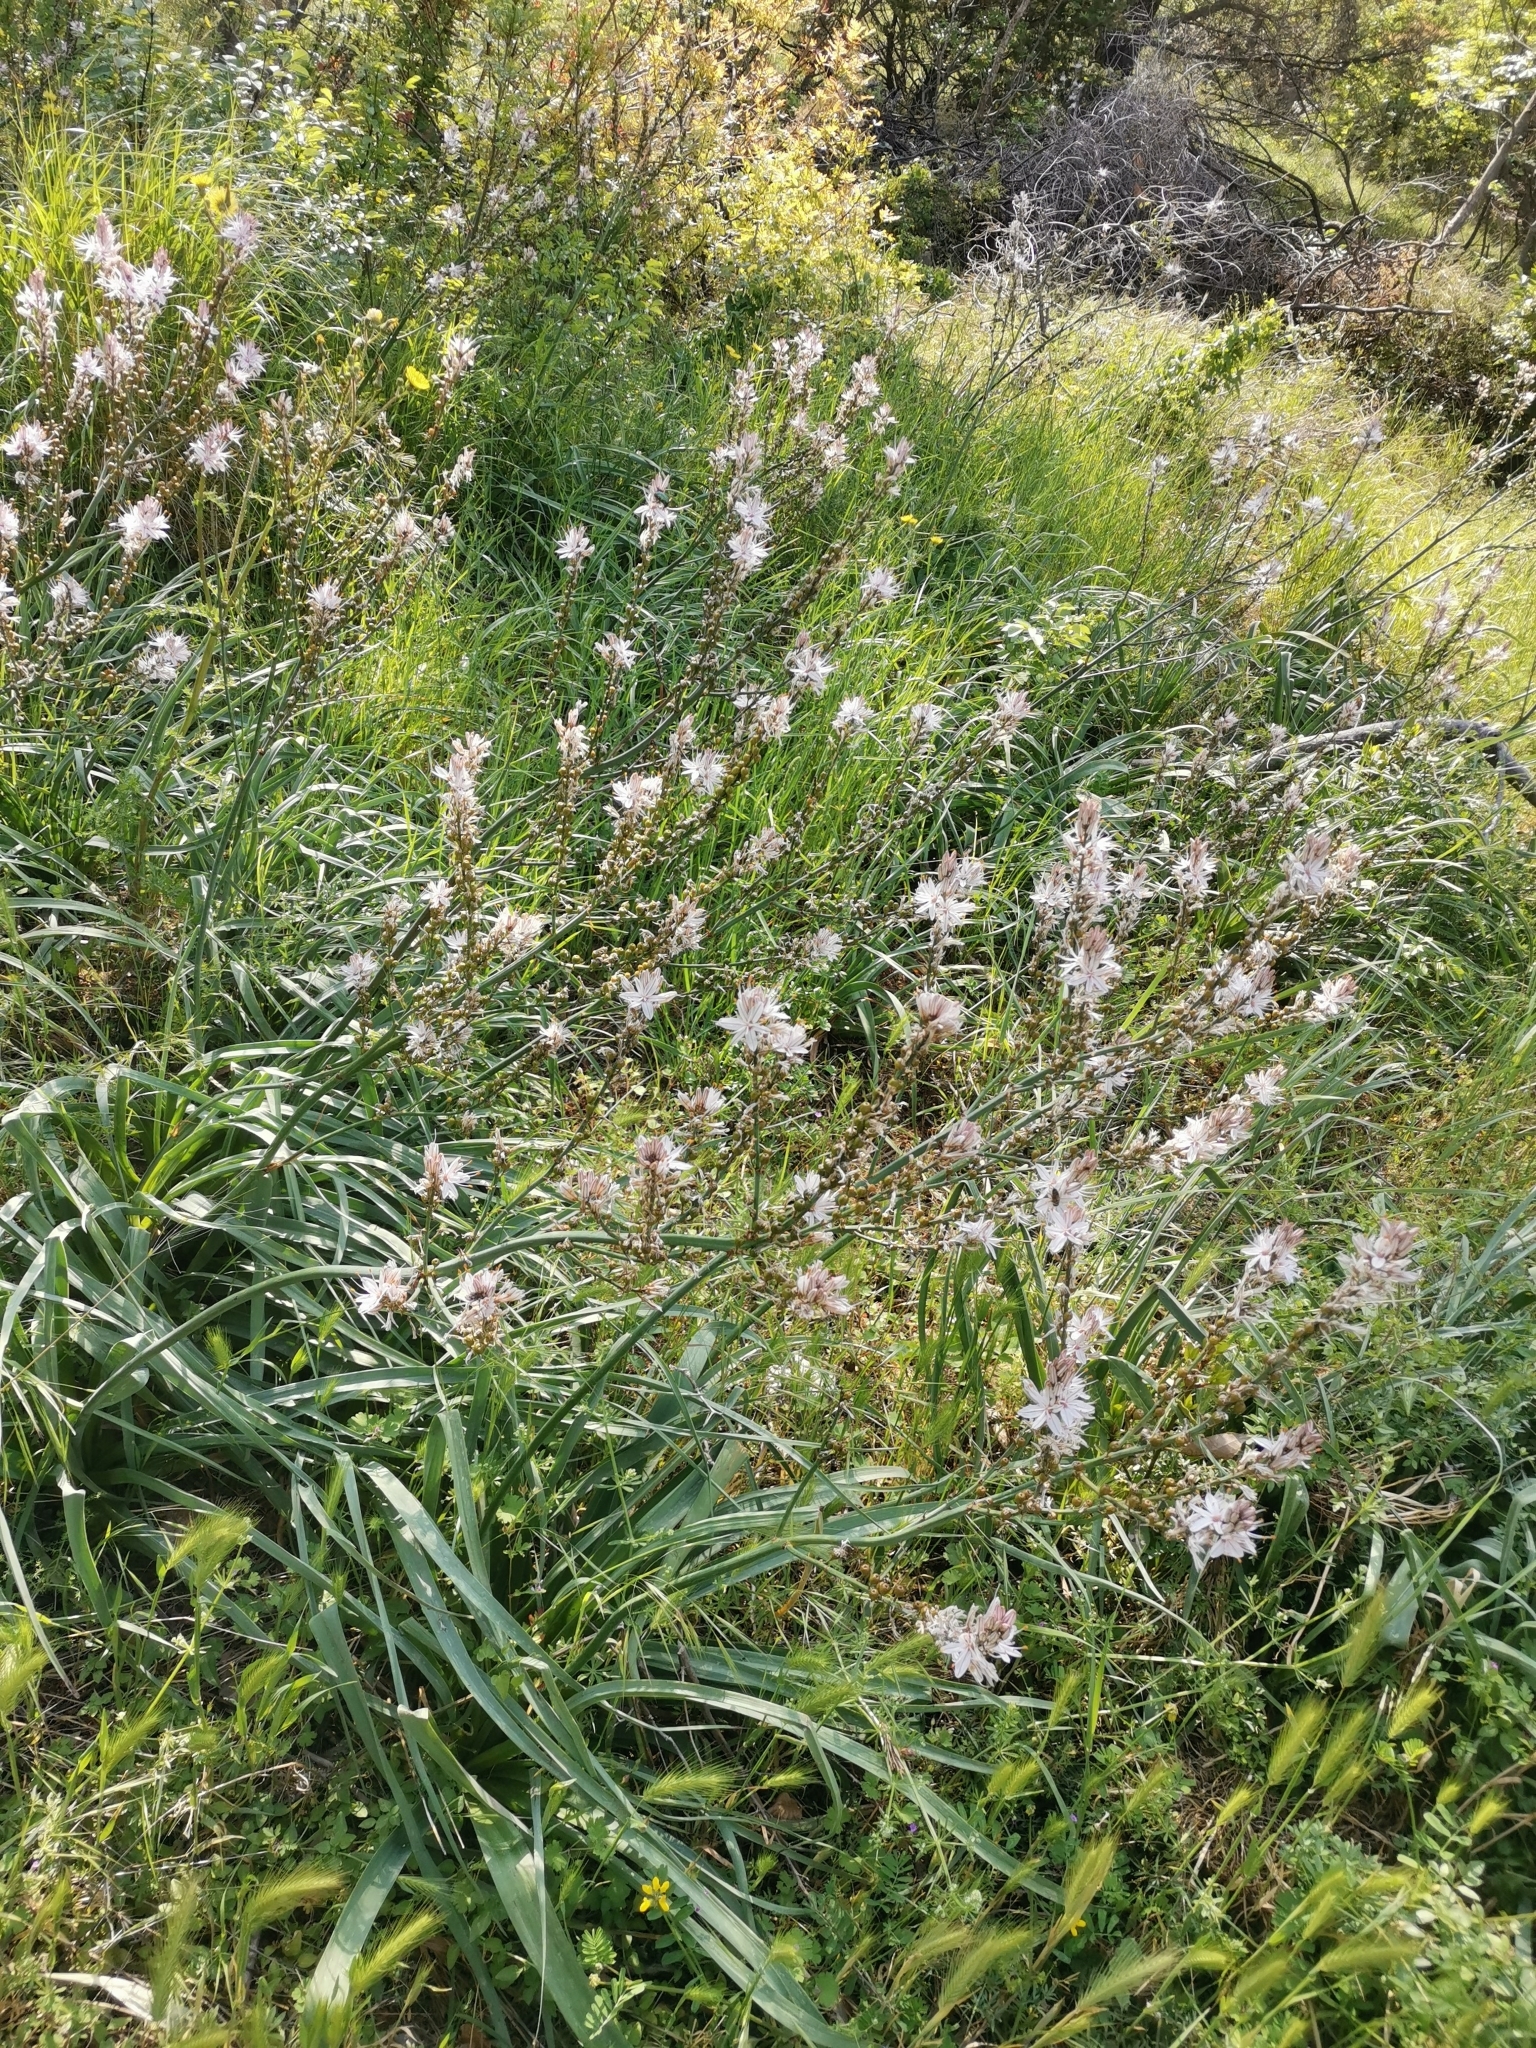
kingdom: Plantae
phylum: Tracheophyta
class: Liliopsida
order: Asparagales
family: Asphodelaceae
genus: Asphodelus
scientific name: Asphodelus ramosus
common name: Silverrod
